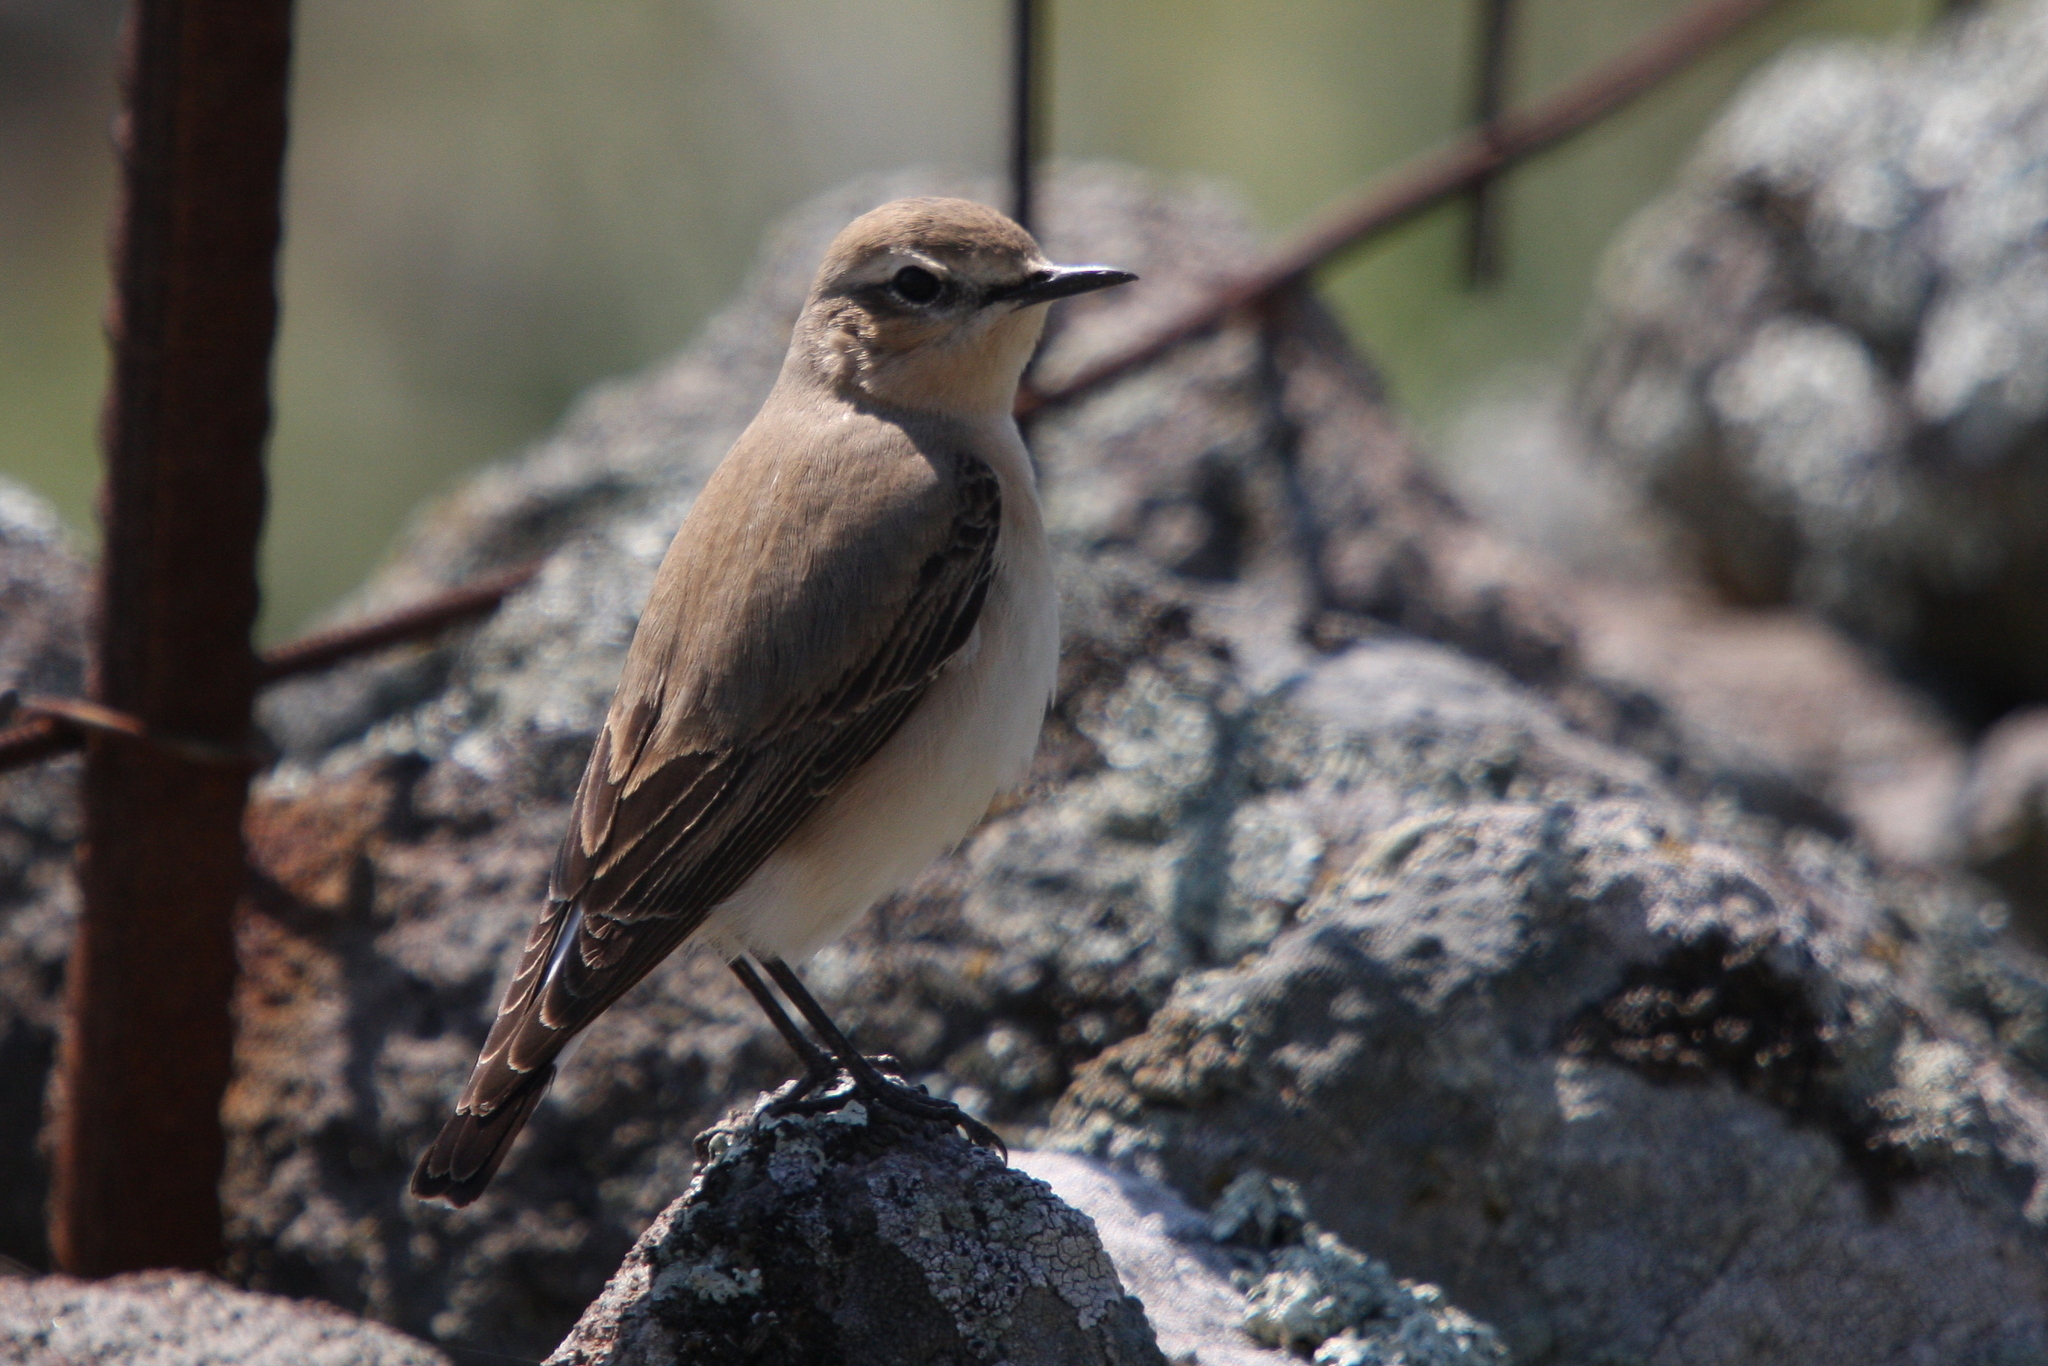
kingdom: Animalia
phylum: Chordata
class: Aves
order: Passeriformes
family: Muscicapidae
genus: Oenanthe
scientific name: Oenanthe oenanthe
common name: Northern wheatear
